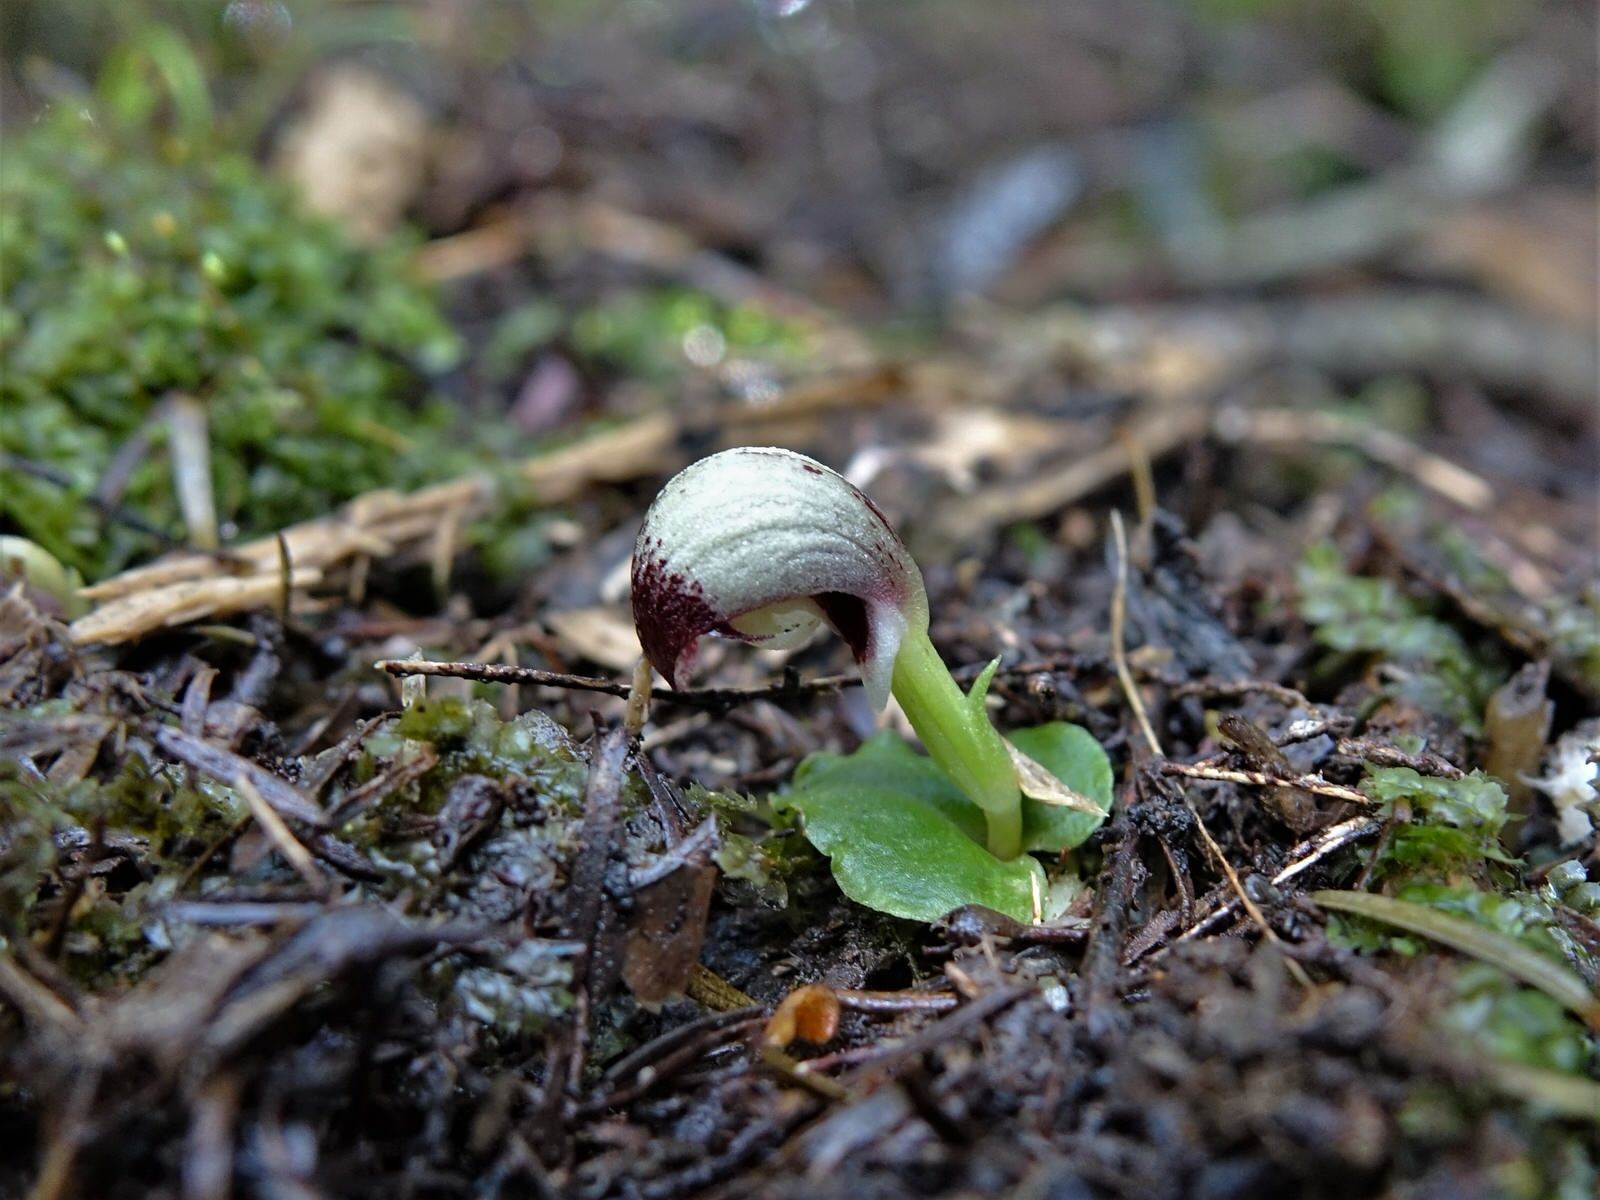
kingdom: Plantae
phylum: Tracheophyta
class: Liliopsida
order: Asparagales
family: Orchidaceae
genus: Corybas
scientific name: Corybas cheesemanii
